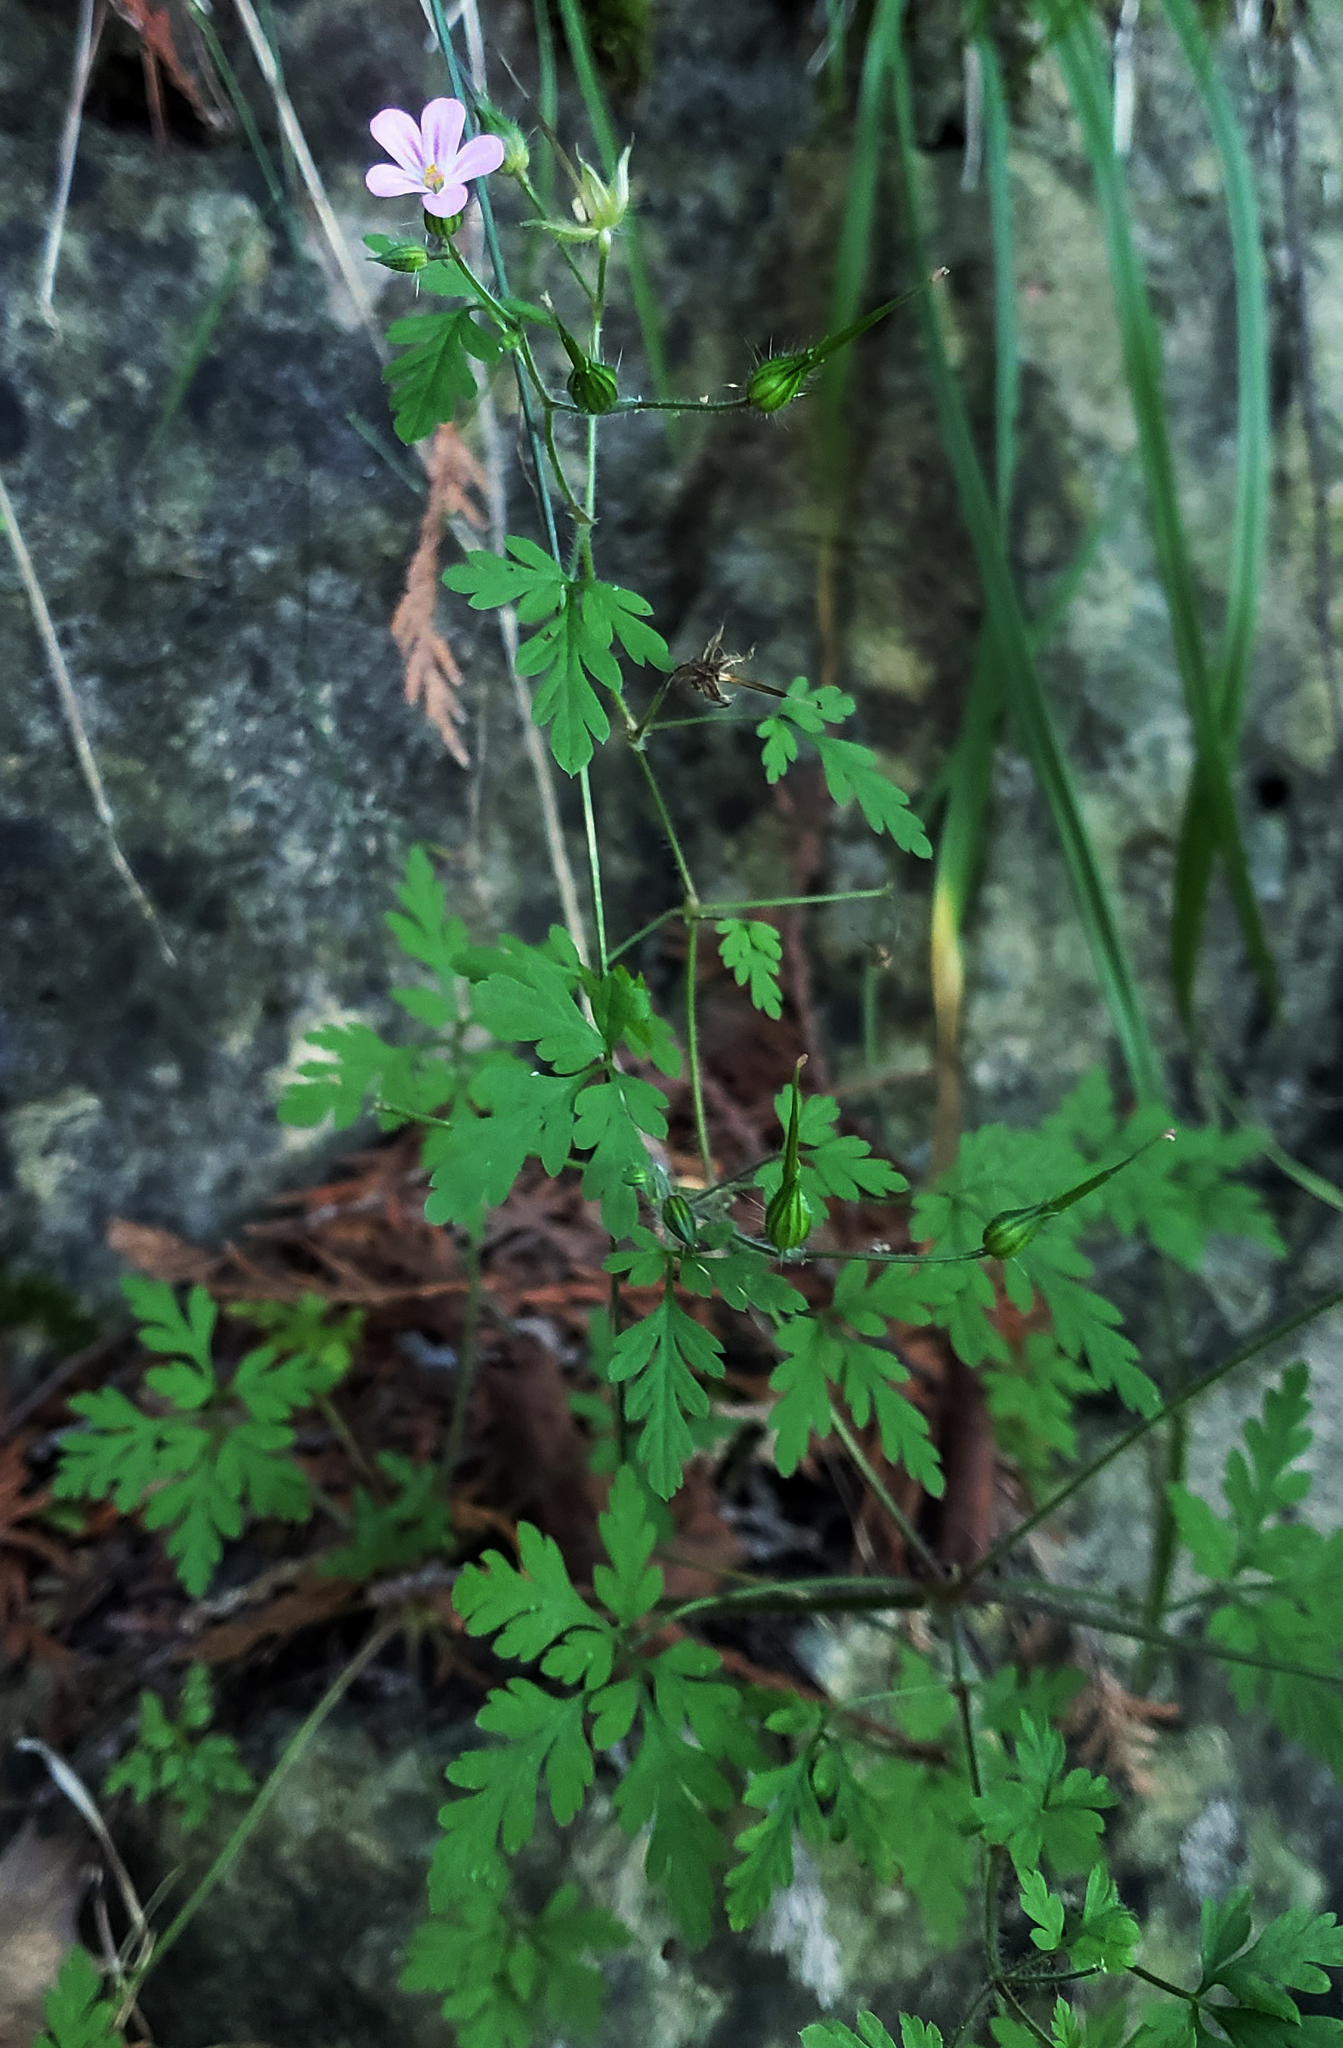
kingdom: Plantae
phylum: Tracheophyta
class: Magnoliopsida
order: Geraniales
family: Geraniaceae
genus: Geranium
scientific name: Geranium robertianum
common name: Herb-robert
